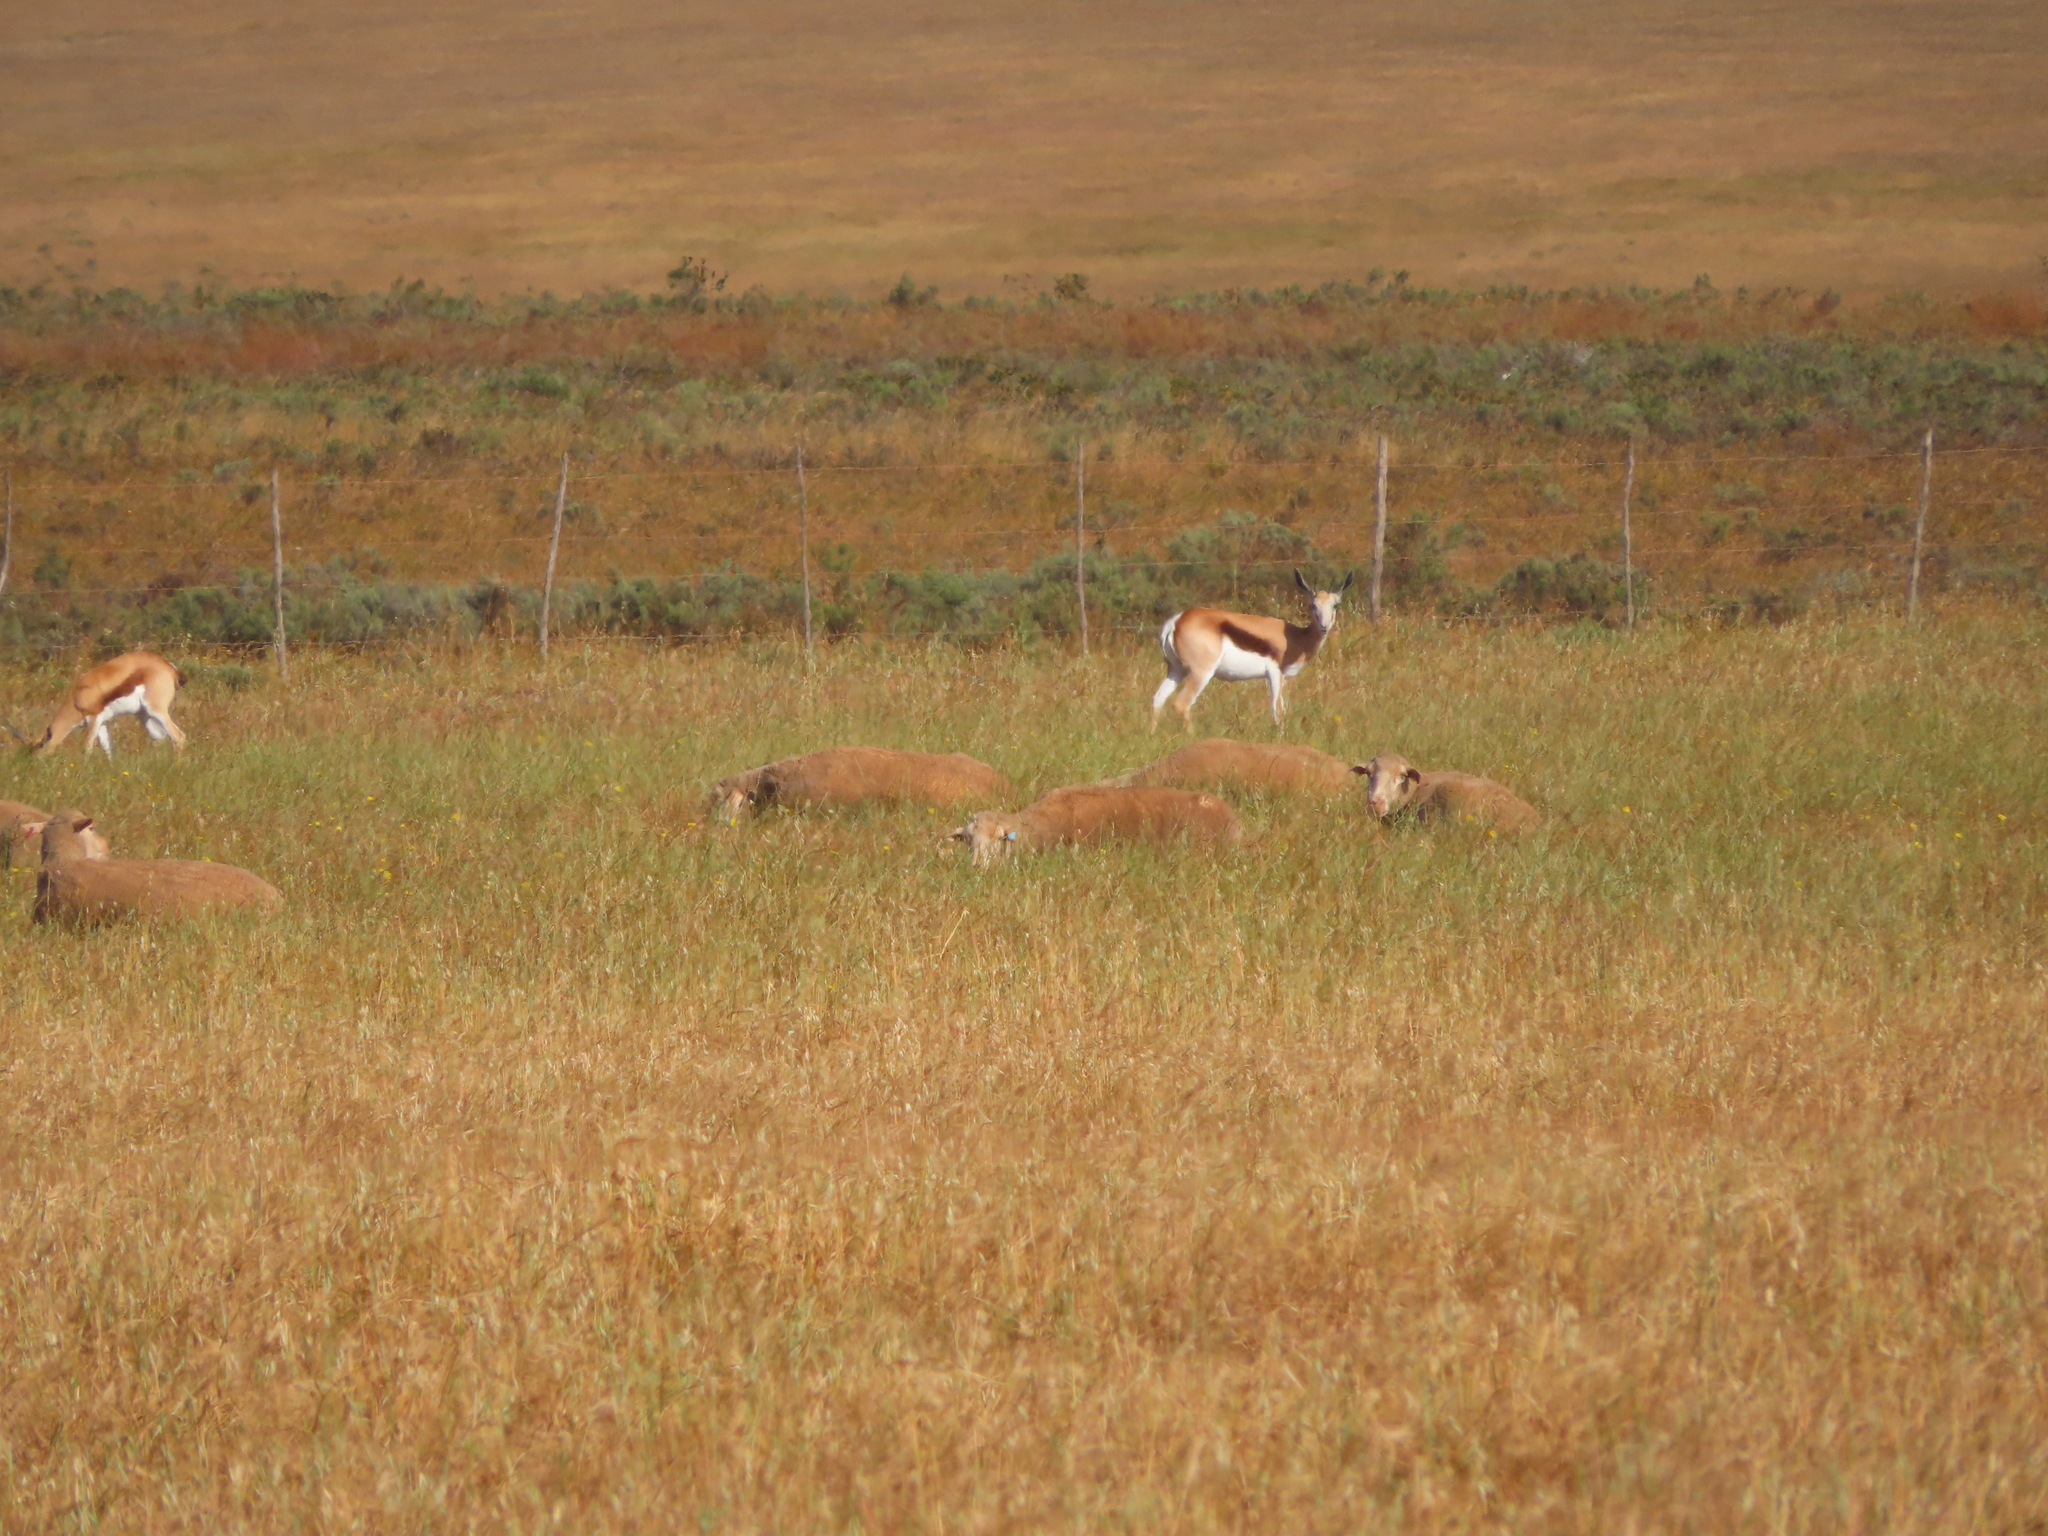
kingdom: Animalia
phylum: Chordata
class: Mammalia
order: Artiodactyla
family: Bovidae
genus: Antidorcas
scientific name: Antidorcas marsupialis
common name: Springbok
